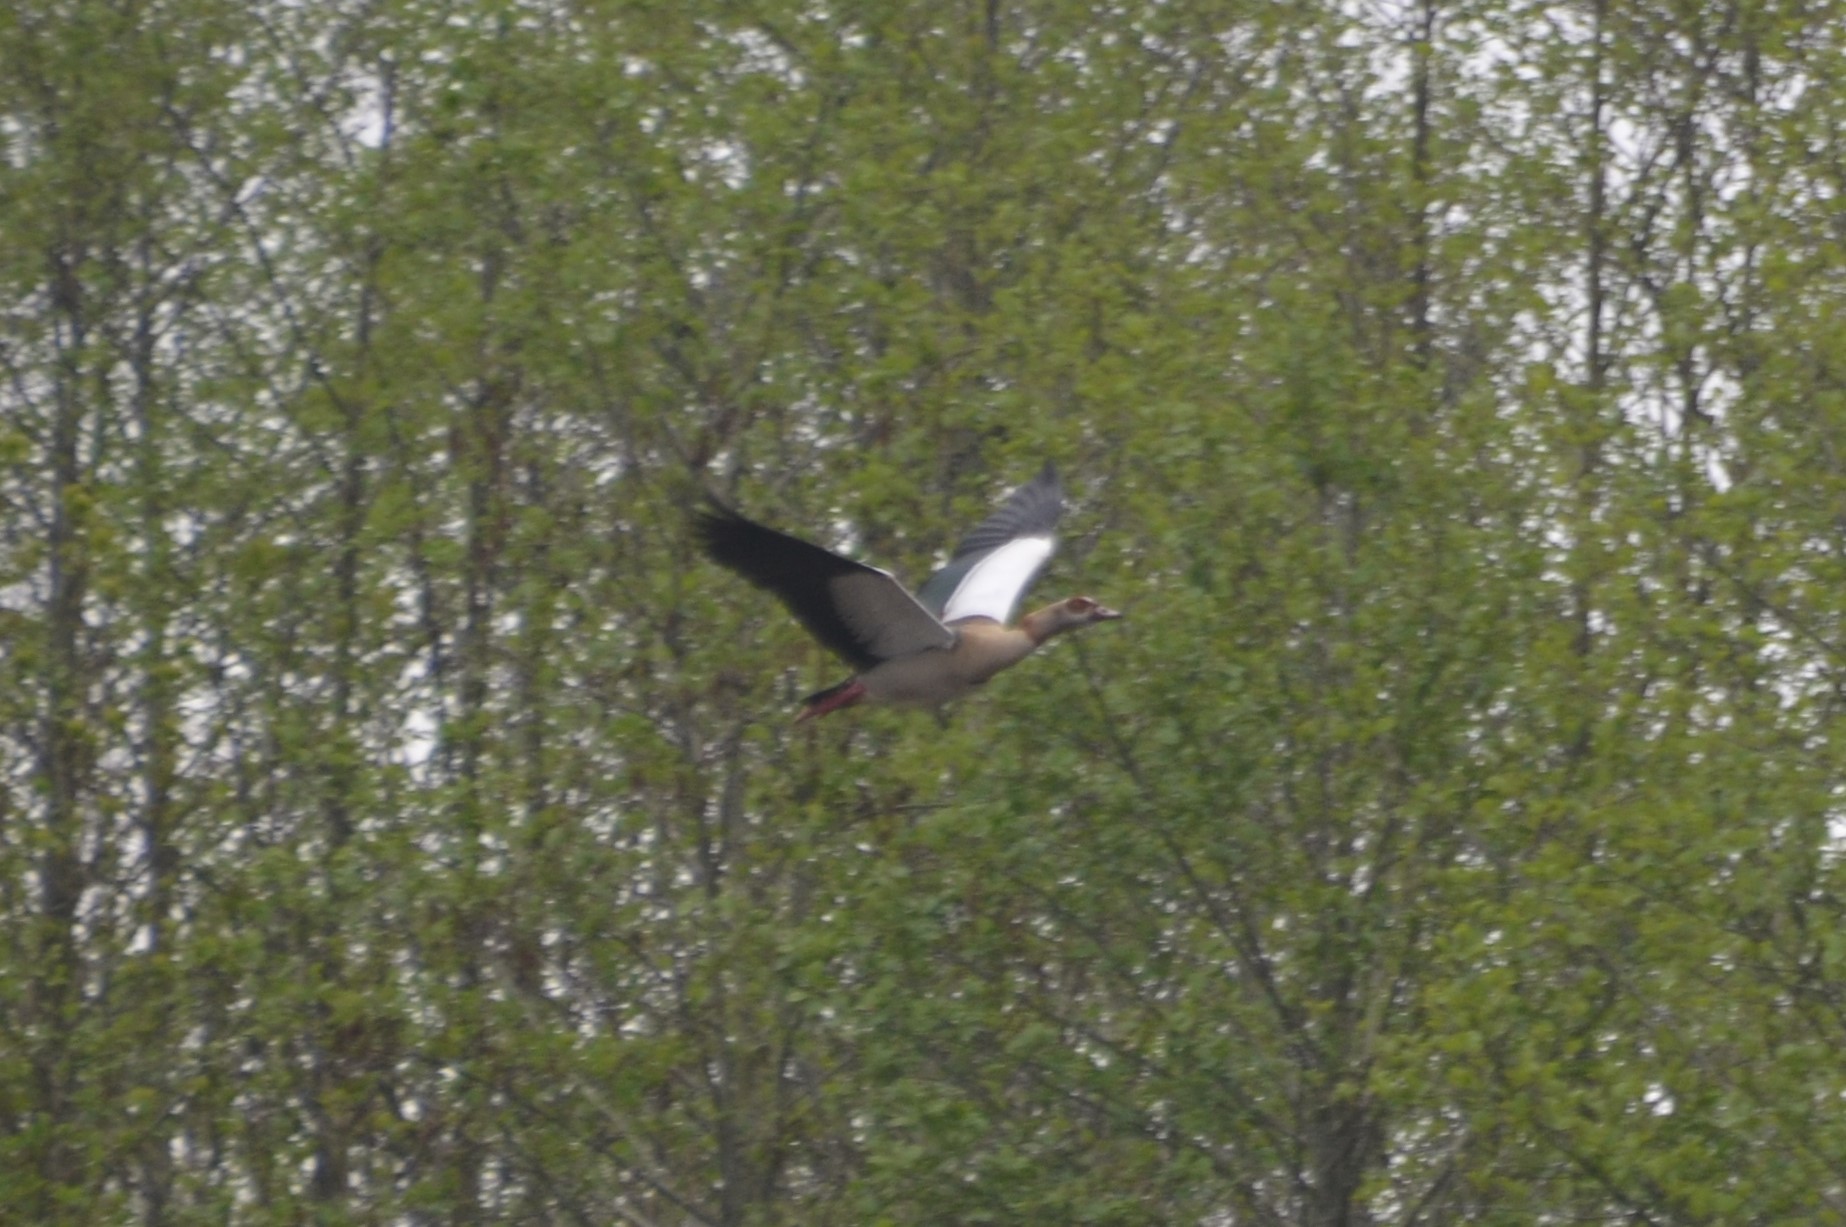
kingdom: Animalia
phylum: Chordata
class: Aves
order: Anseriformes
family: Anatidae
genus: Alopochen
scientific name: Alopochen aegyptiaca
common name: Egyptian goose
